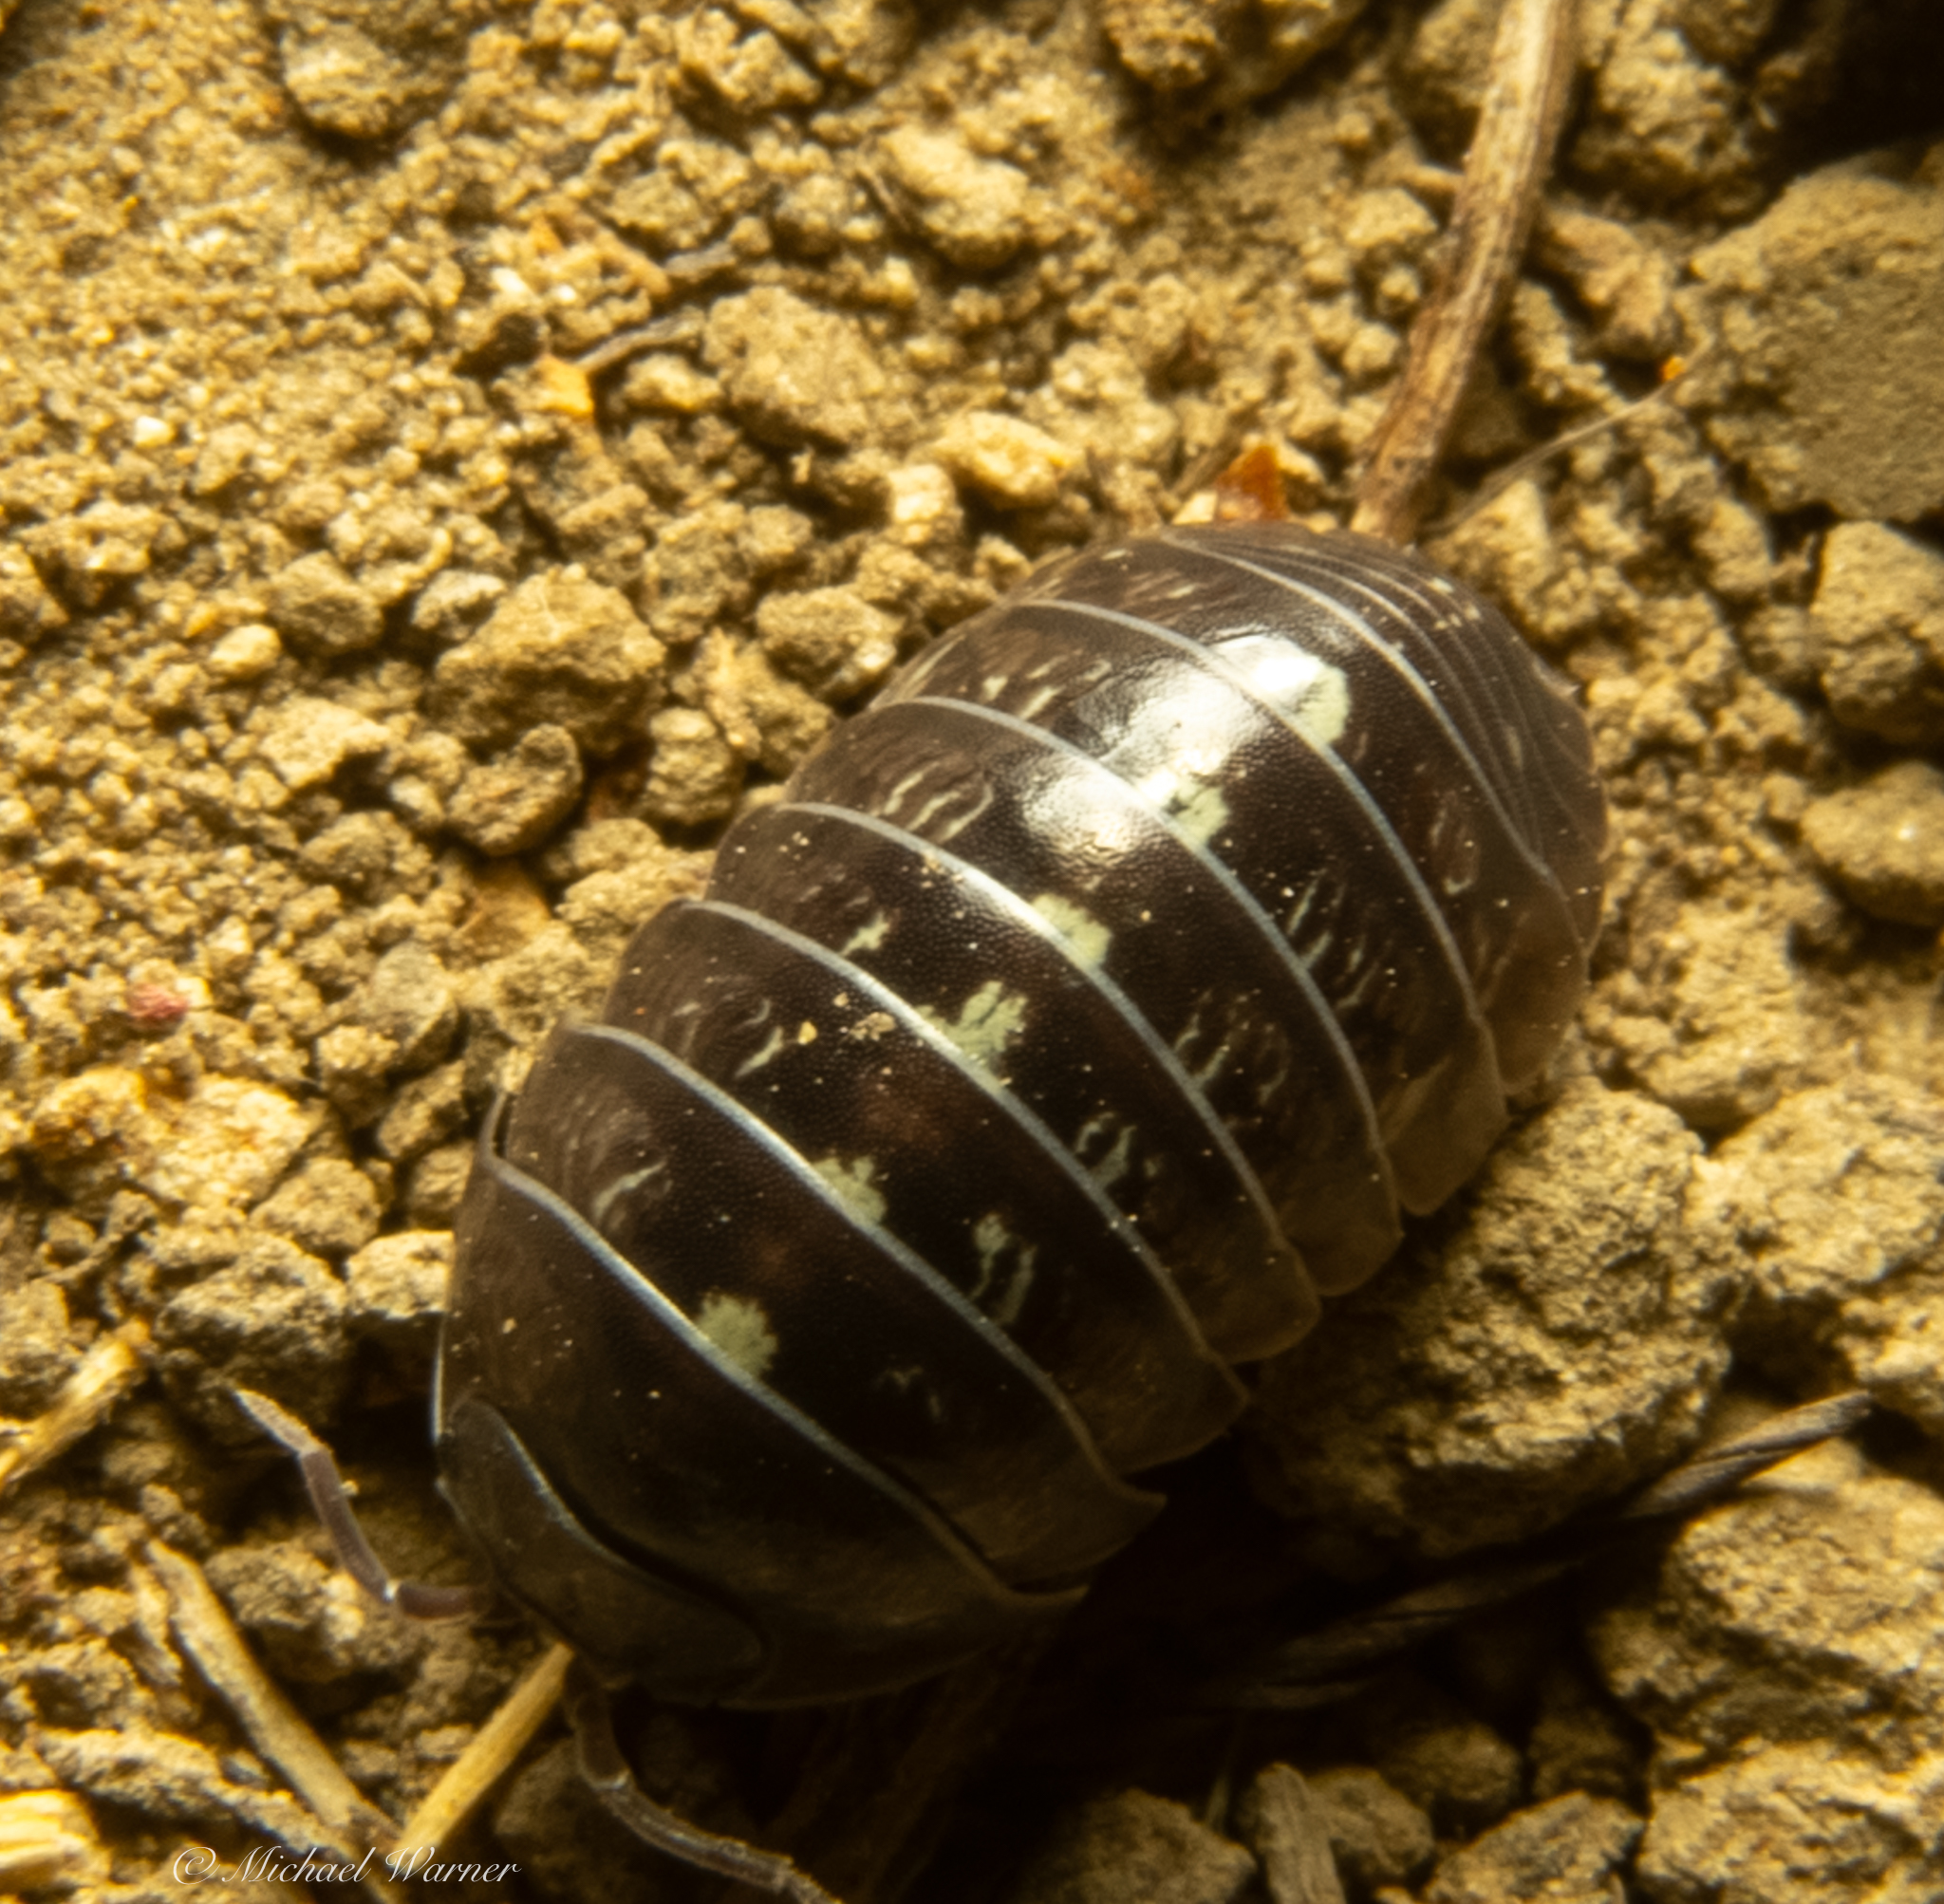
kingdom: Animalia
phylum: Arthropoda
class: Malacostraca
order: Isopoda
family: Armadillidiidae
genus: Armadillidium
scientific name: Armadillidium vulgare
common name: Common pill woodlouse
